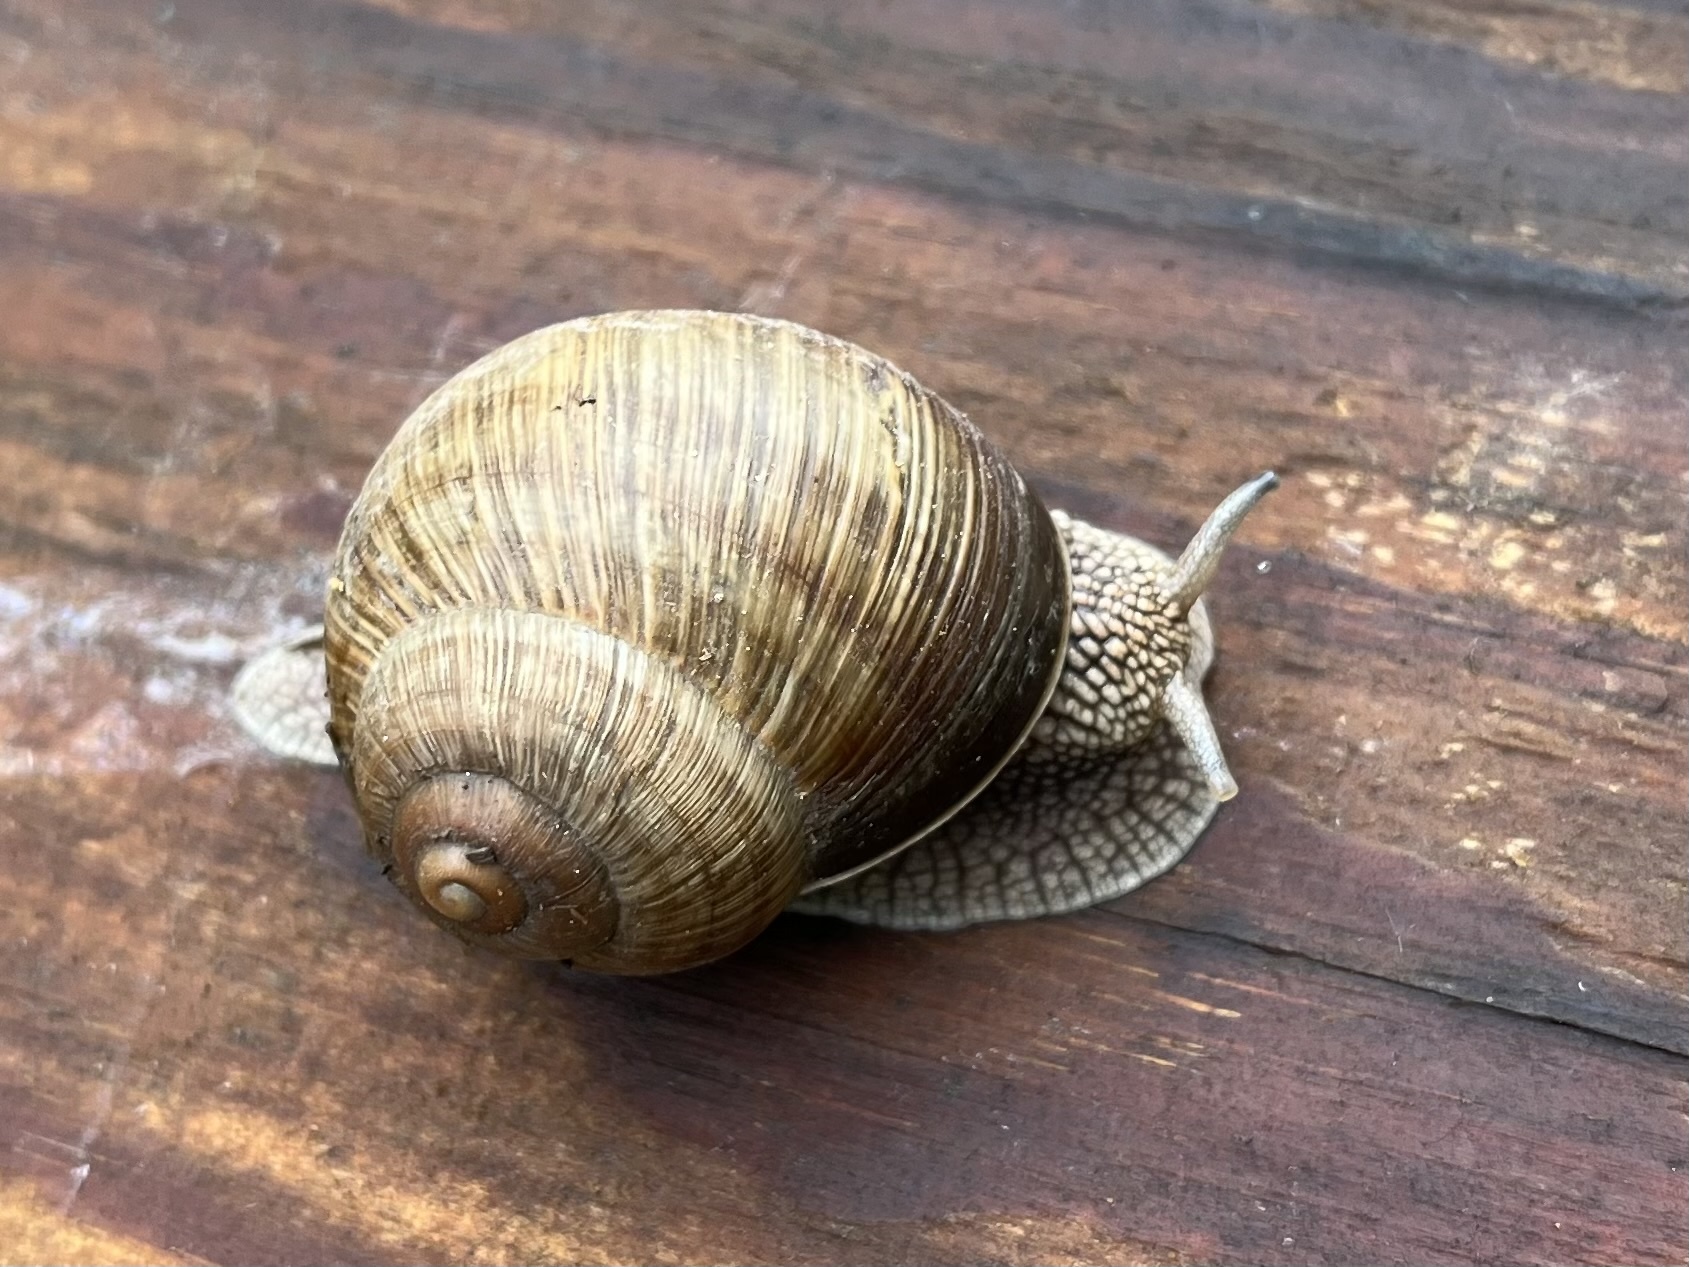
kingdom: Animalia
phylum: Mollusca
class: Gastropoda
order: Stylommatophora
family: Helicidae
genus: Helix
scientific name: Helix pomatia
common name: Roman snail
